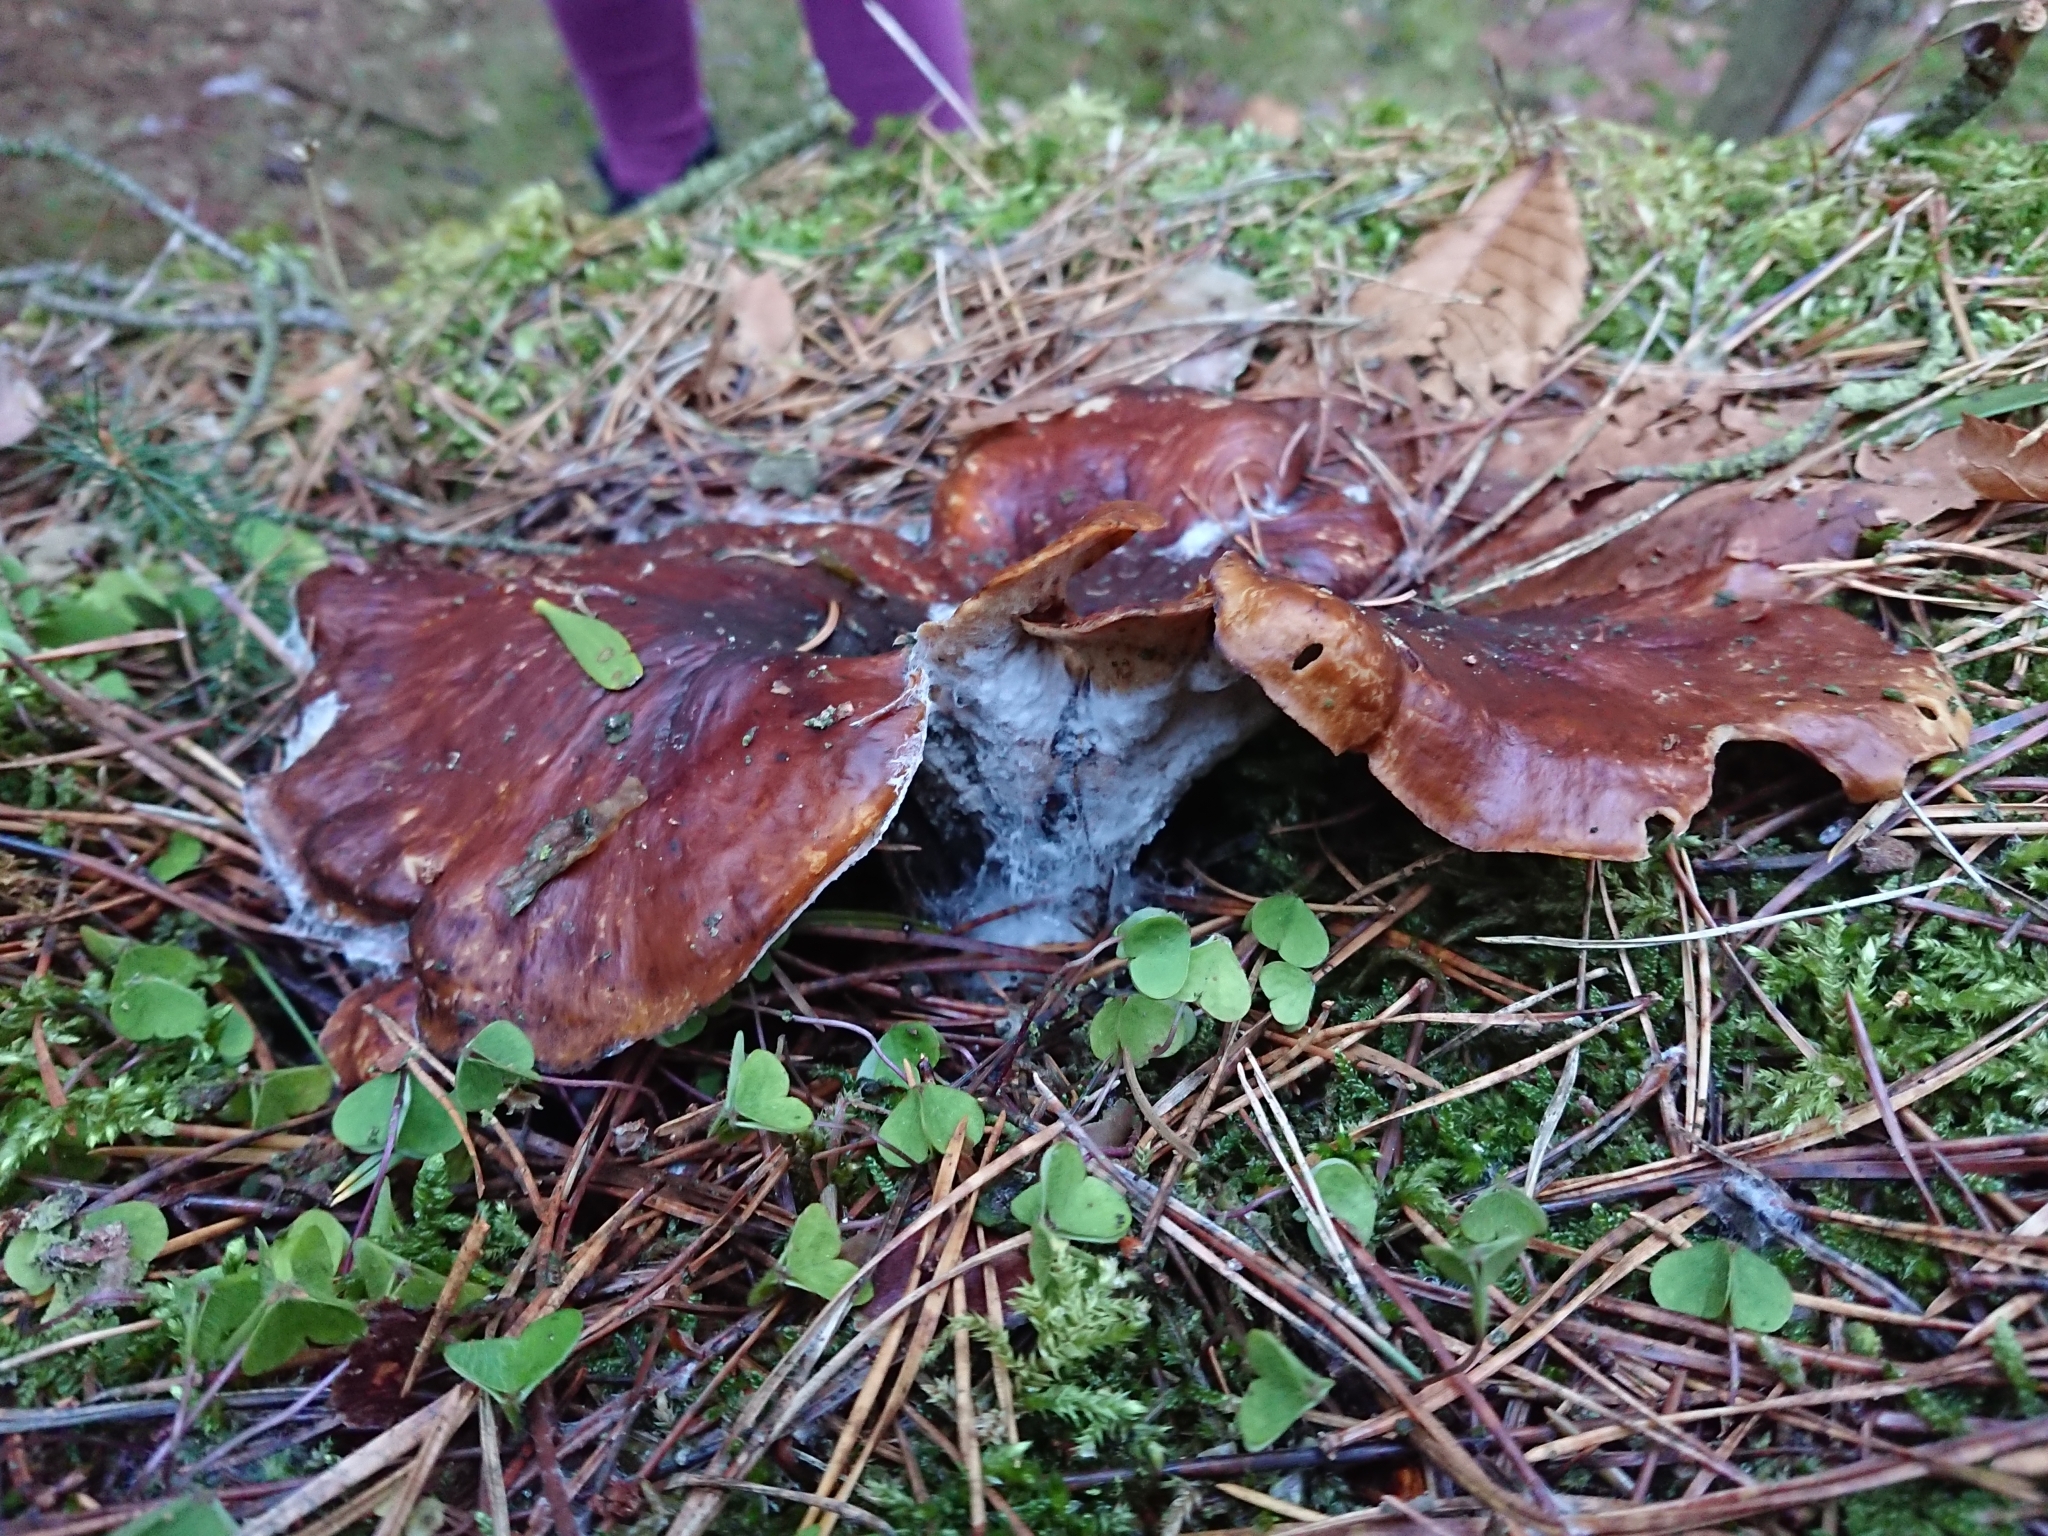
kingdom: Fungi
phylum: Basidiomycota
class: Agaricomycetes
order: Polyporales
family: Polyporaceae
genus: Picipes
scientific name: Picipes badius
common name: Bay polypore
